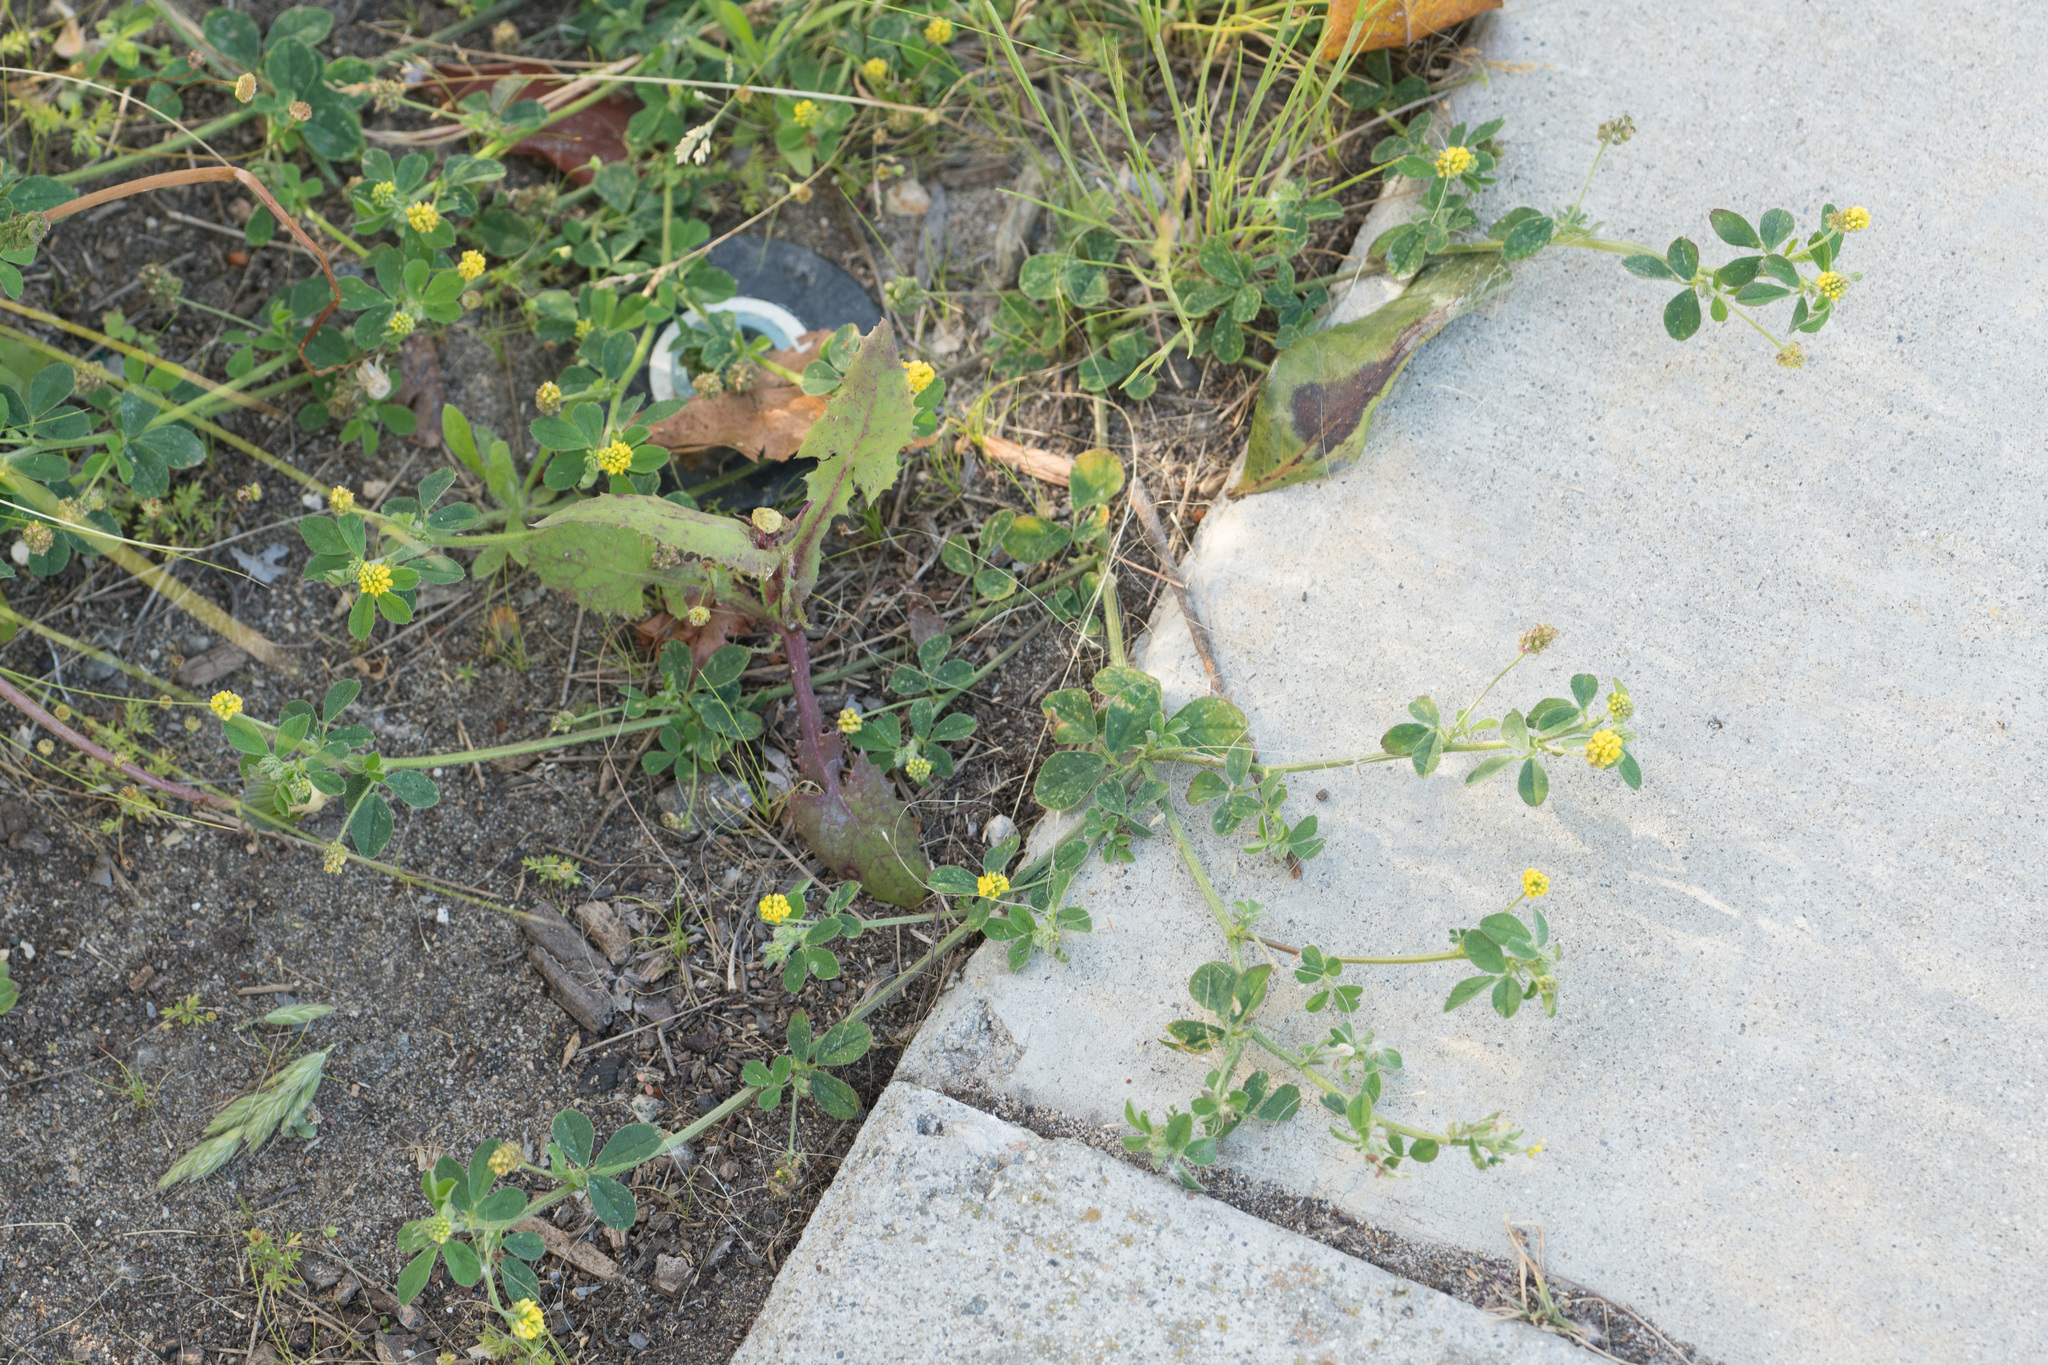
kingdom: Plantae
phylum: Tracheophyta
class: Magnoliopsida
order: Fabales
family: Fabaceae
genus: Medicago
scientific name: Medicago lupulina
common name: Black medick
